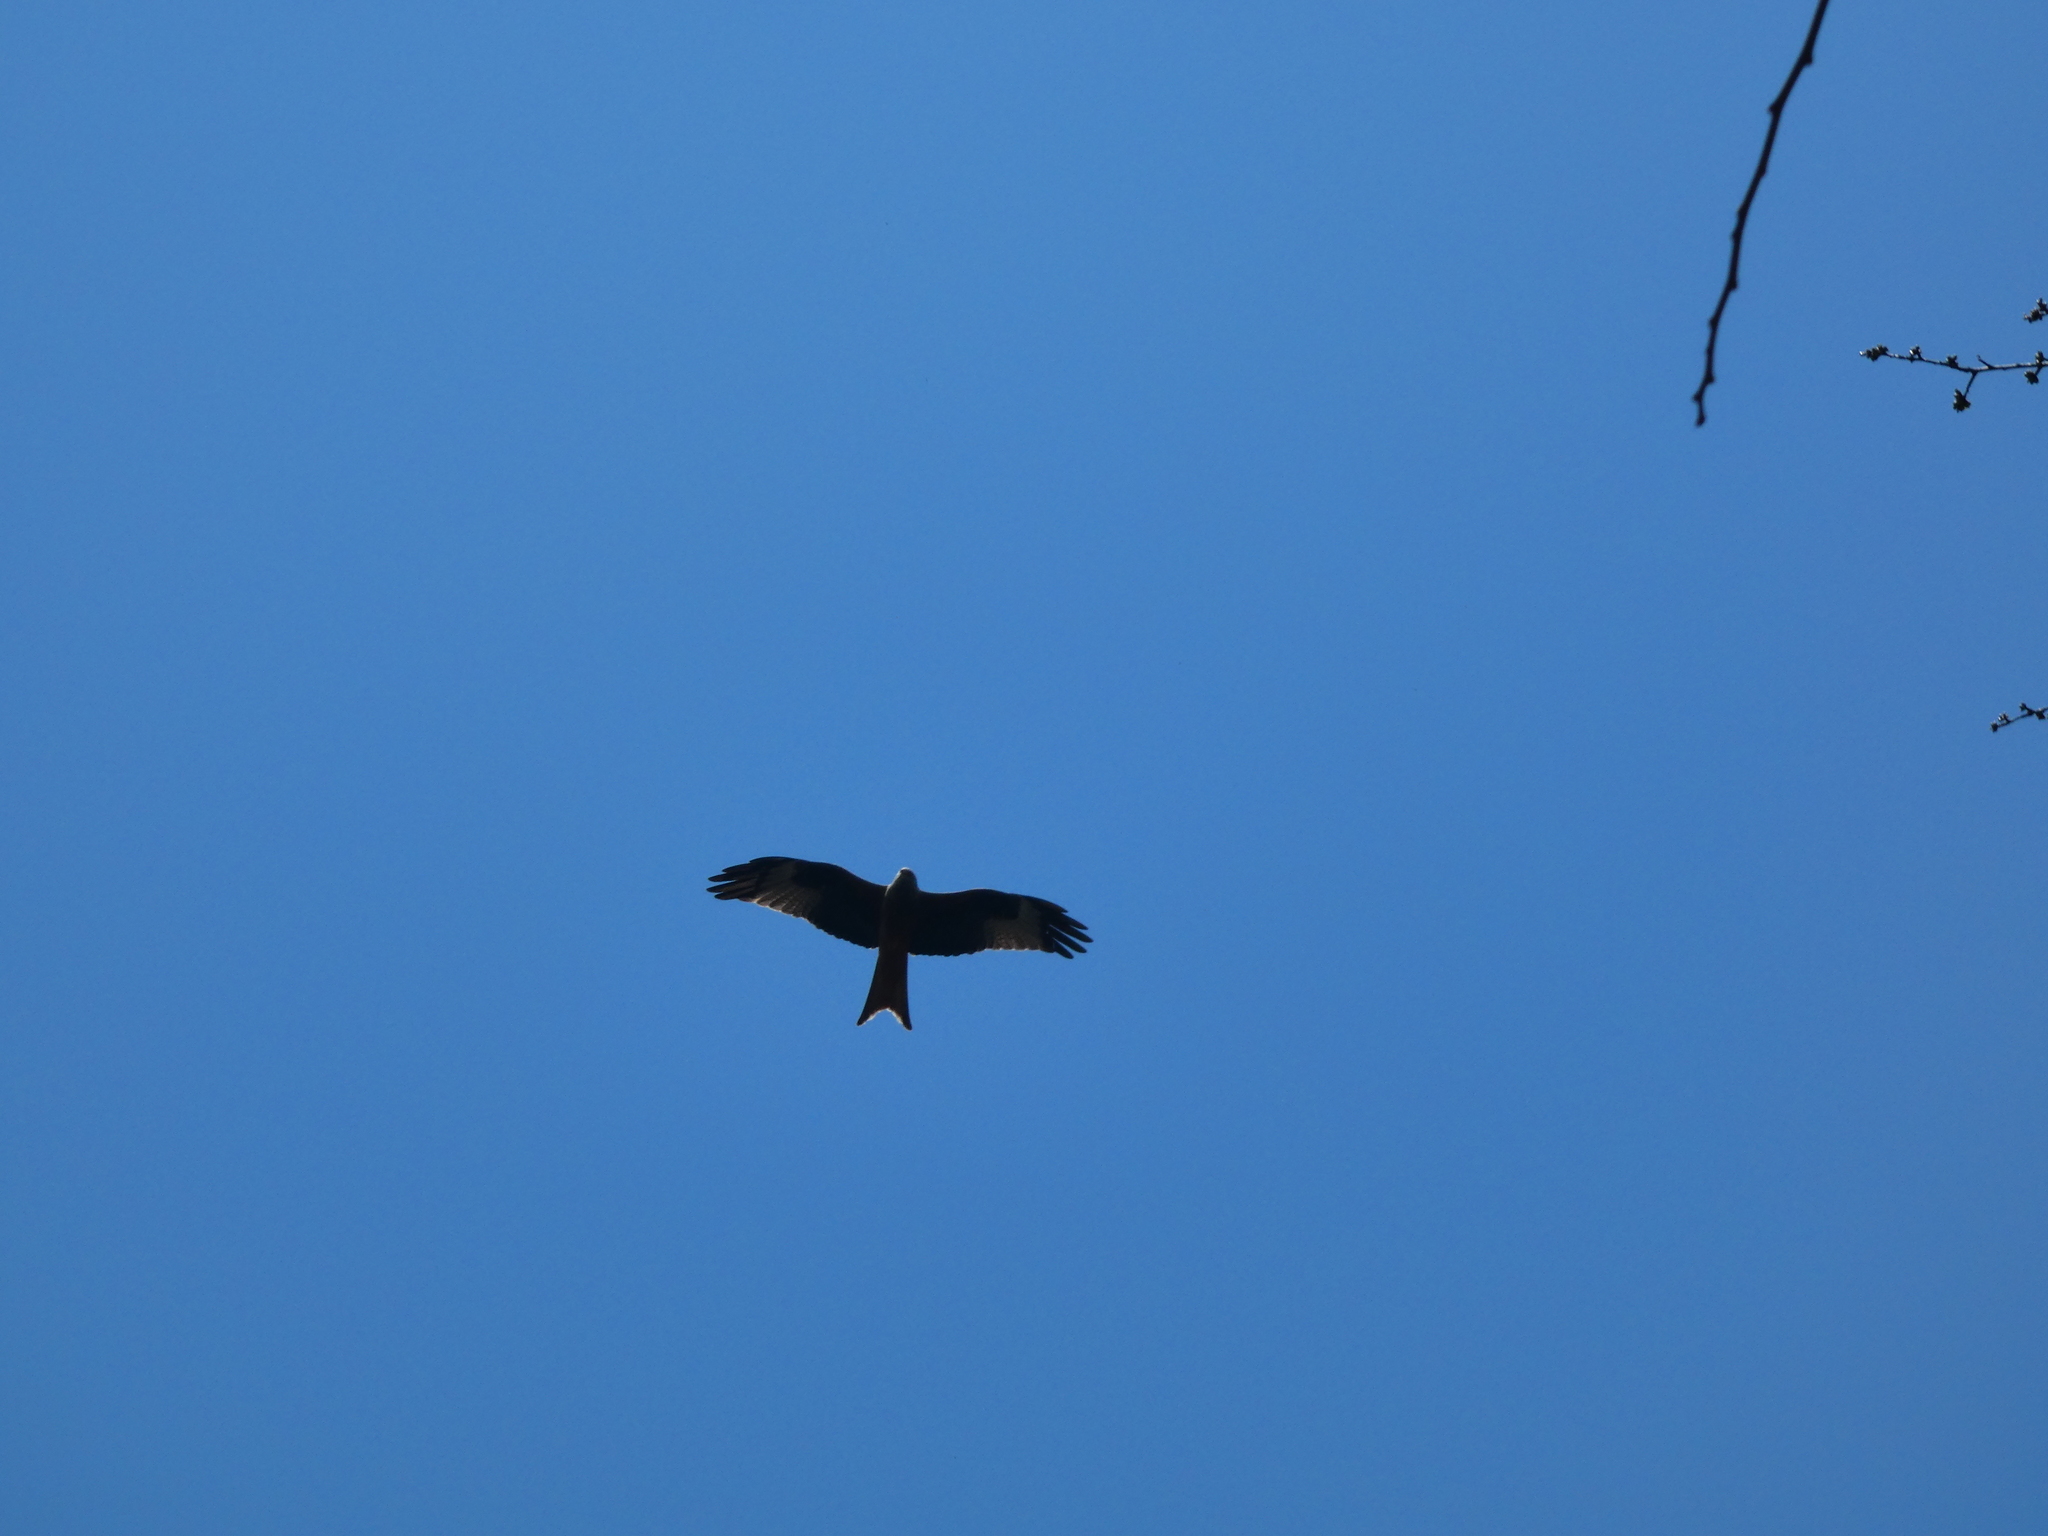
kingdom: Animalia
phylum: Chordata
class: Aves
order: Accipitriformes
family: Accipitridae
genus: Milvus
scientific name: Milvus milvus
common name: Red kite
